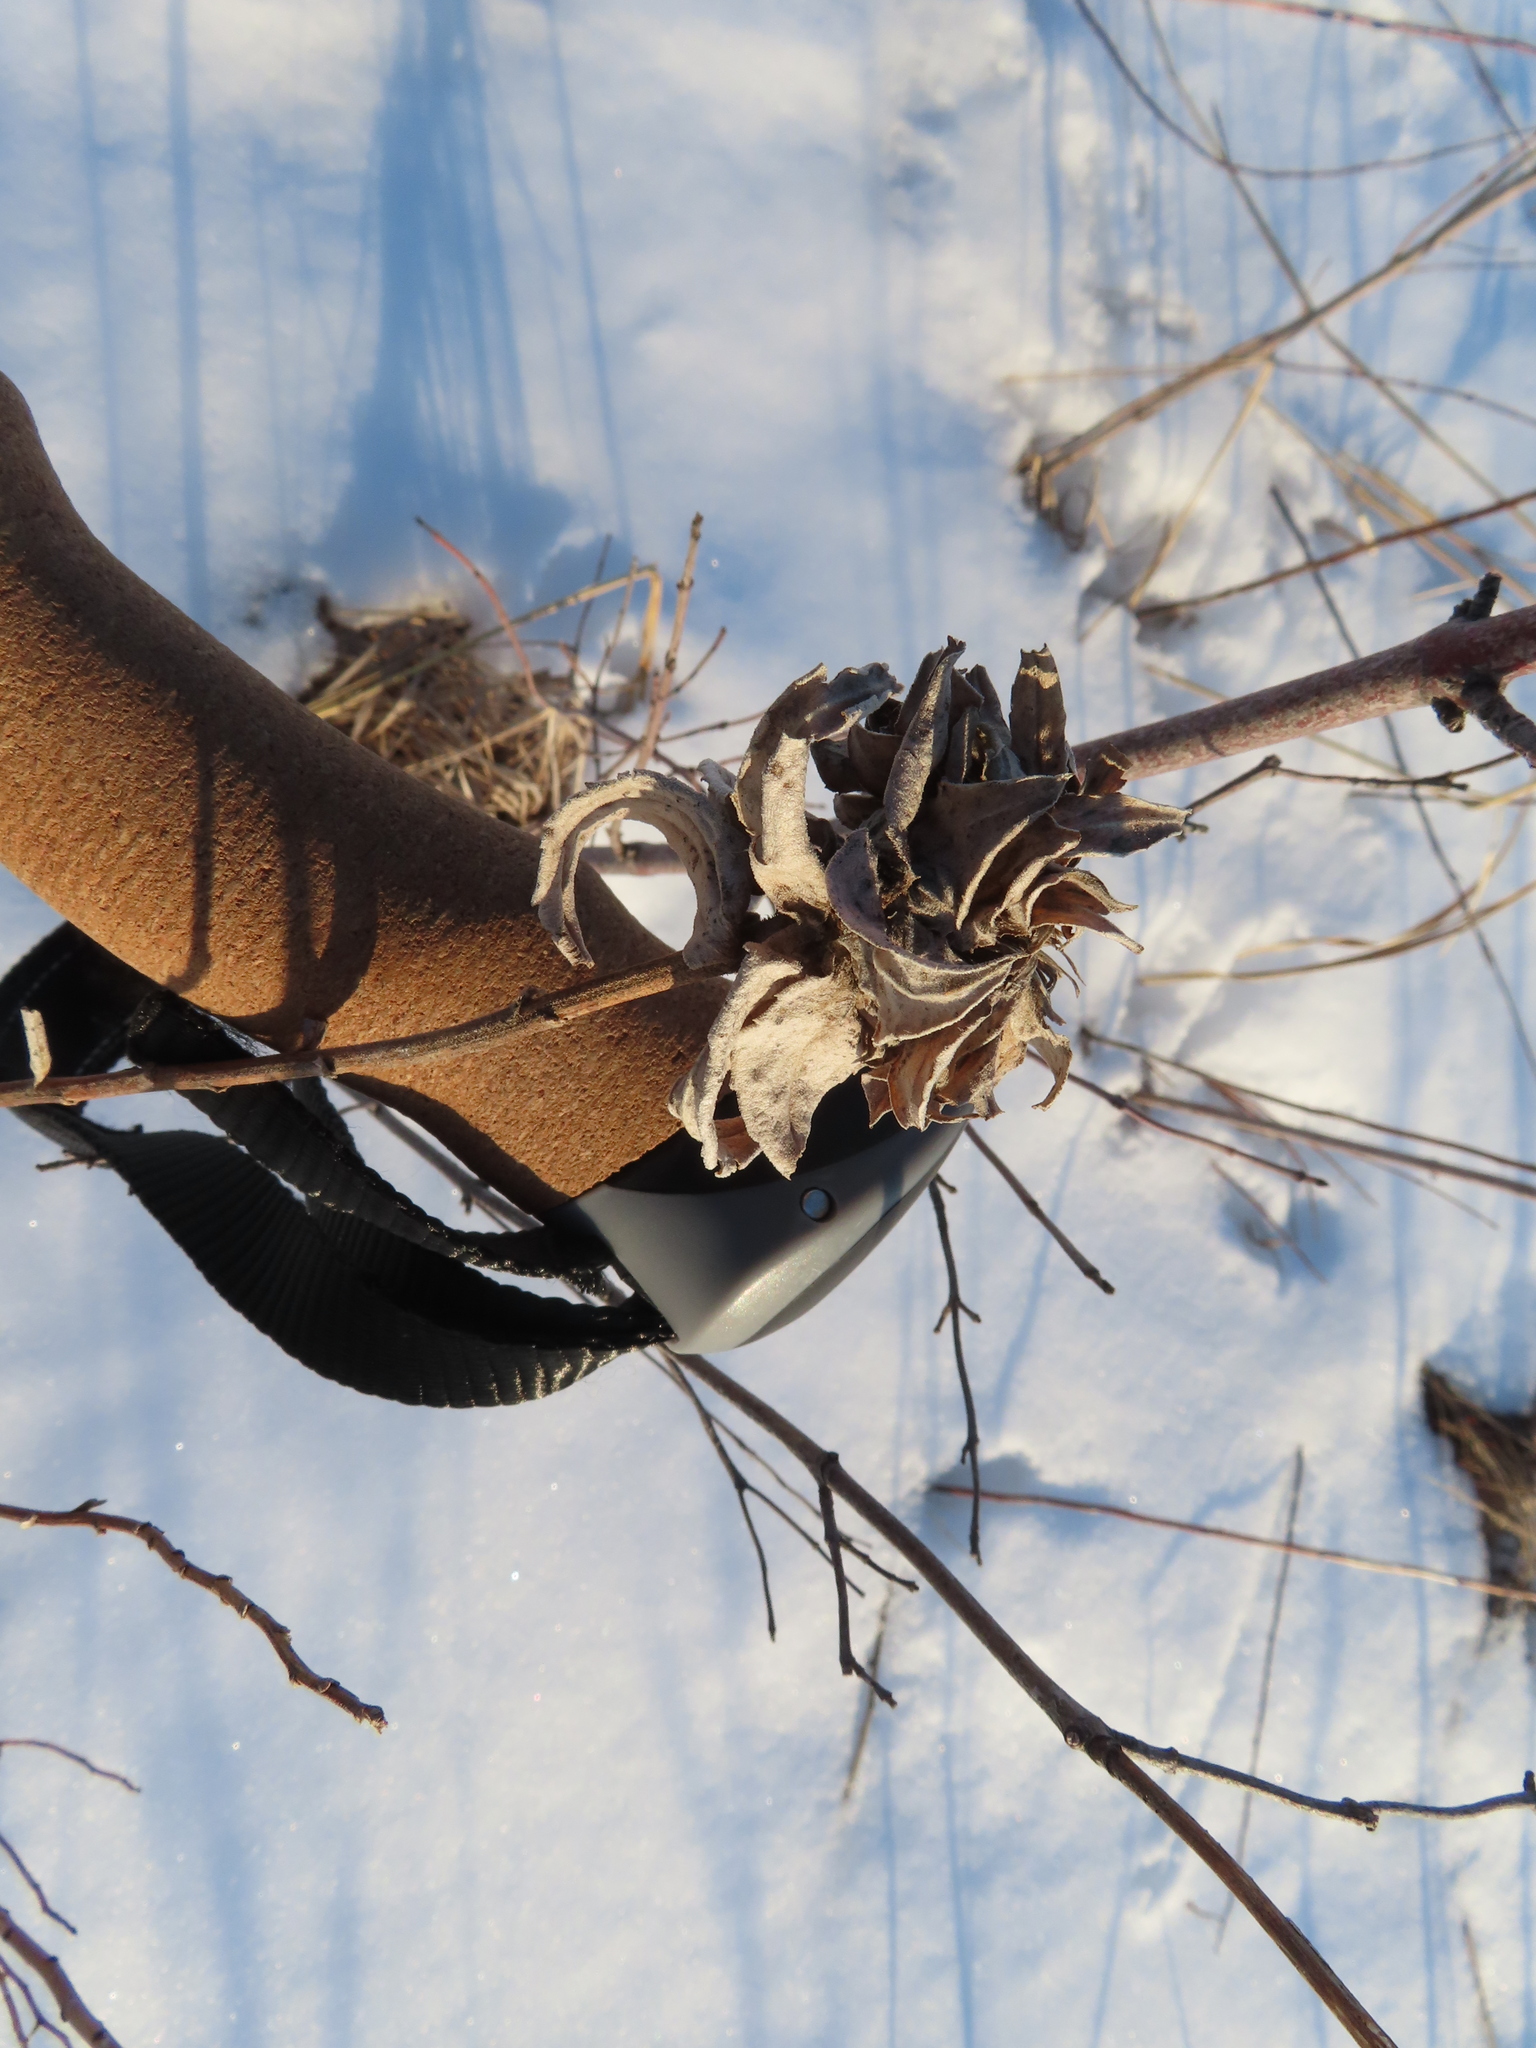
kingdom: Animalia
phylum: Arthropoda
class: Insecta
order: Diptera
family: Cecidomyiidae
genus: Rhopalomyia
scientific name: Rhopalomyia solidaginis
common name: Goldenrod bunch gall midge
